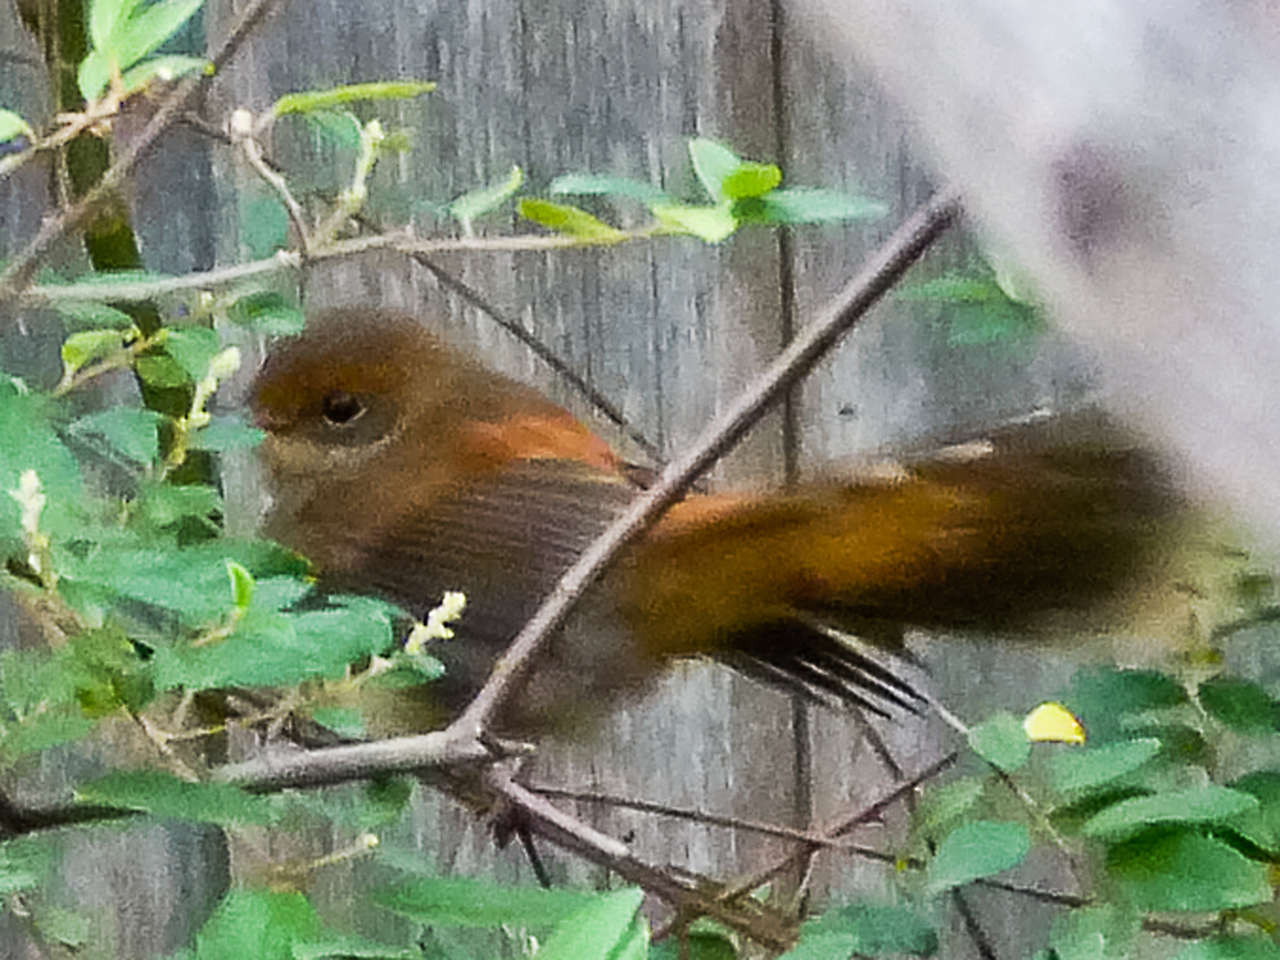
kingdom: Animalia
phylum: Chordata
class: Aves
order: Passeriformes
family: Rhipiduridae
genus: Rhipidura
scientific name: Rhipidura rufifrons
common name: Rufous fantail
